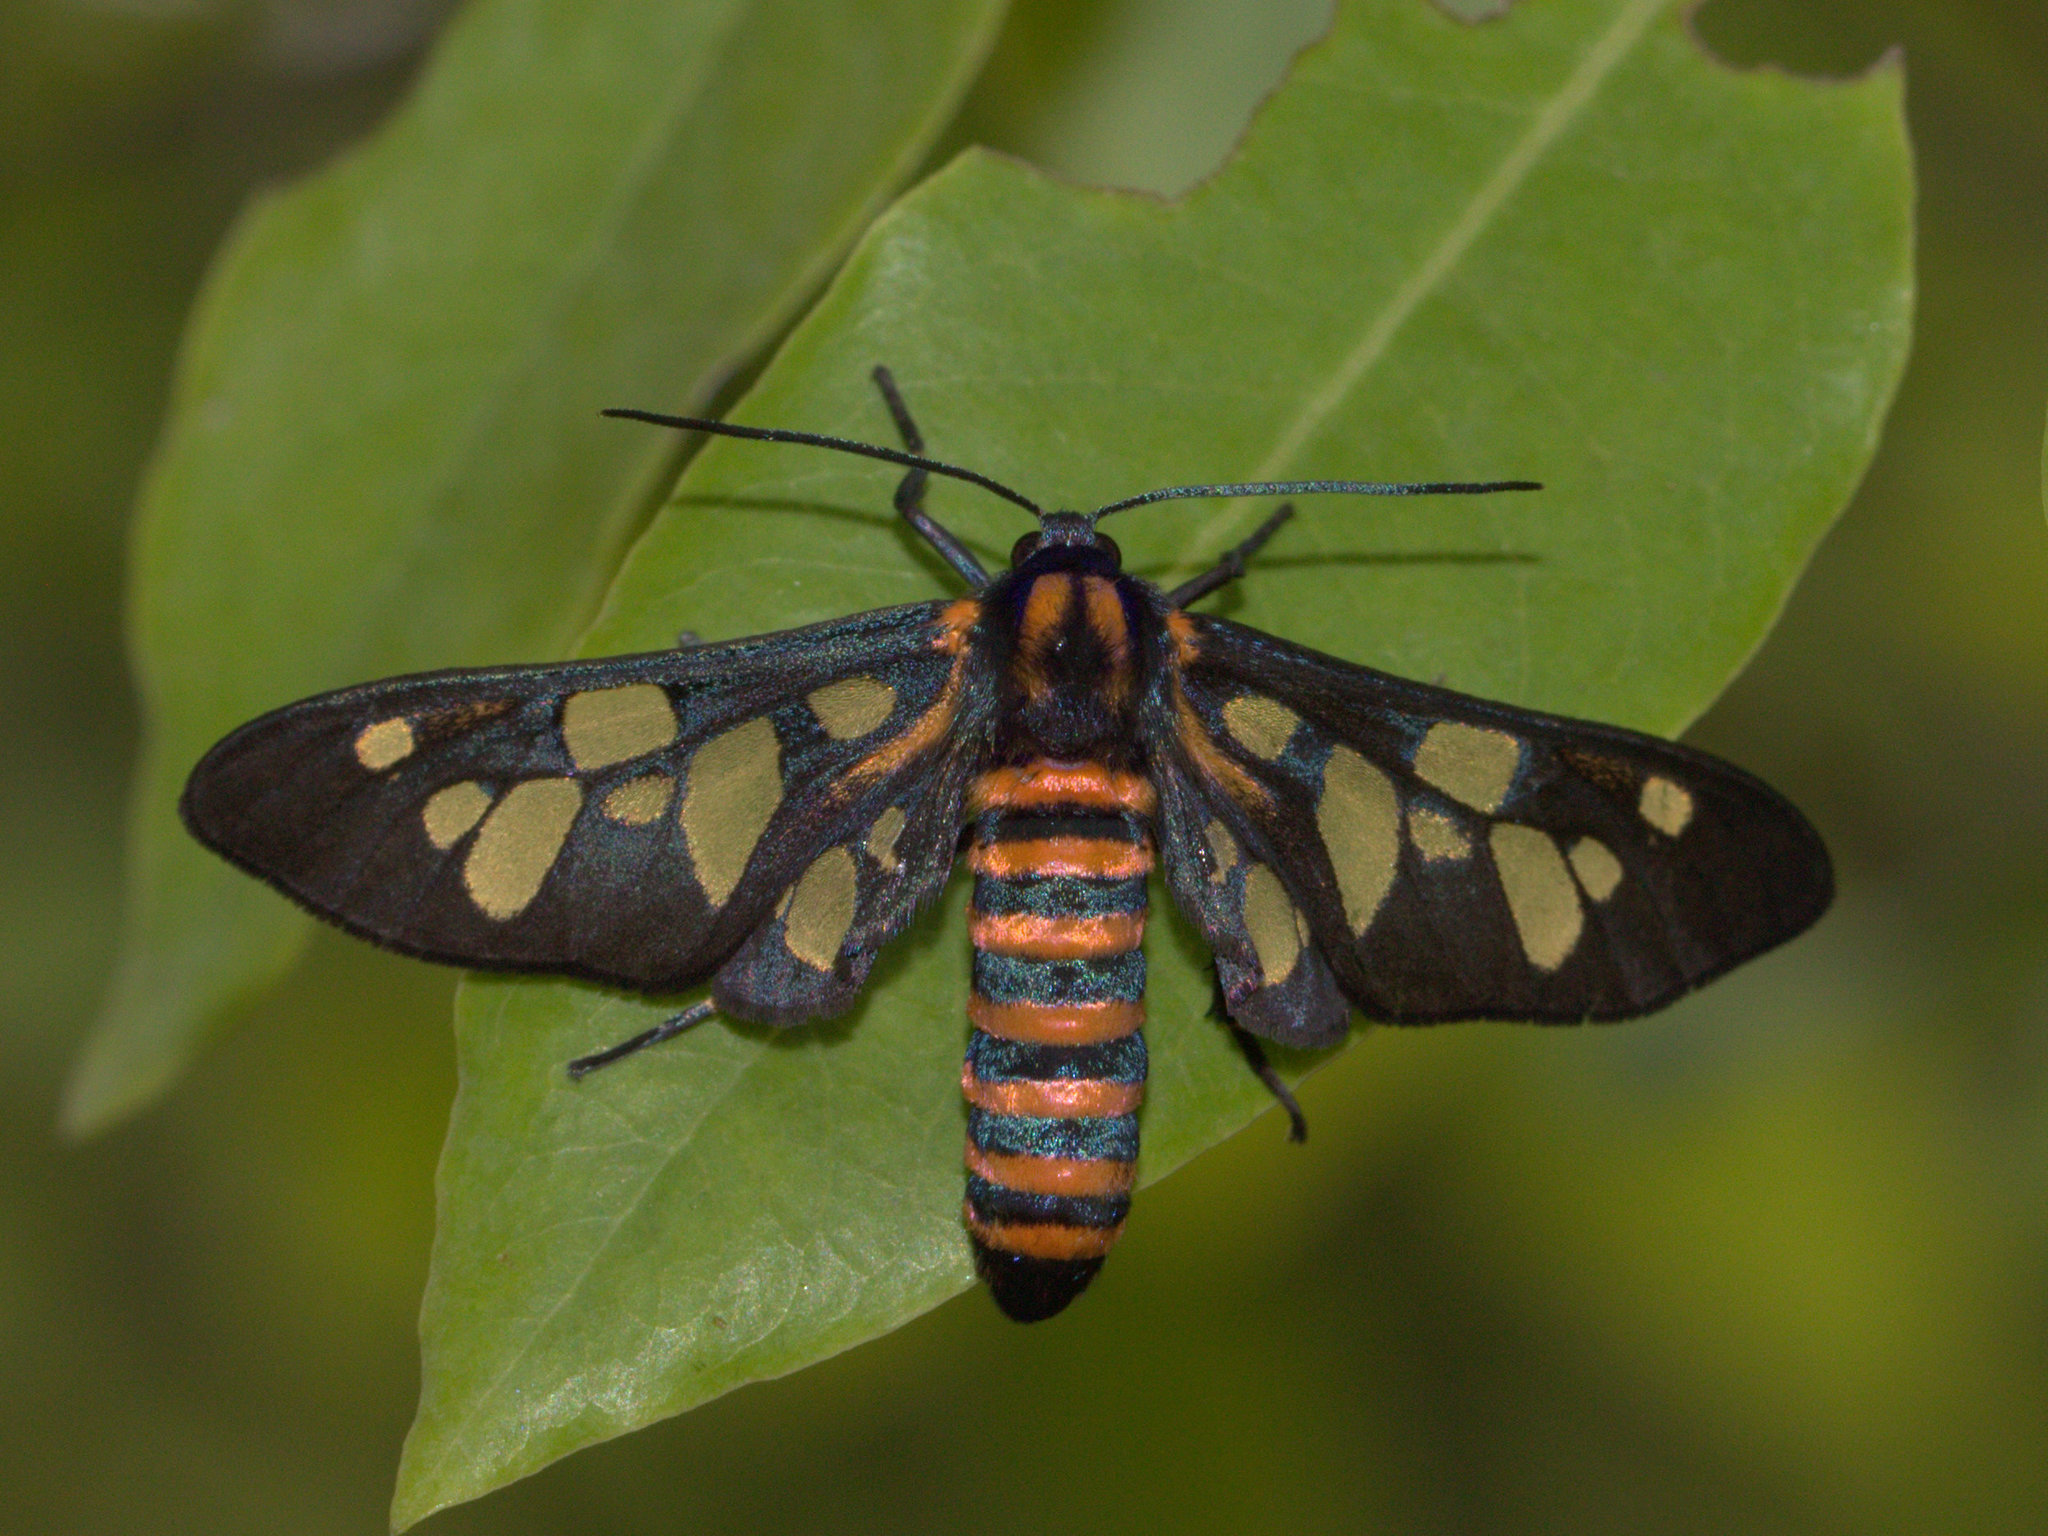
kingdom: Animalia
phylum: Arthropoda
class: Insecta
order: Lepidoptera
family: Erebidae
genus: Amata
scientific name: Amata passalis
